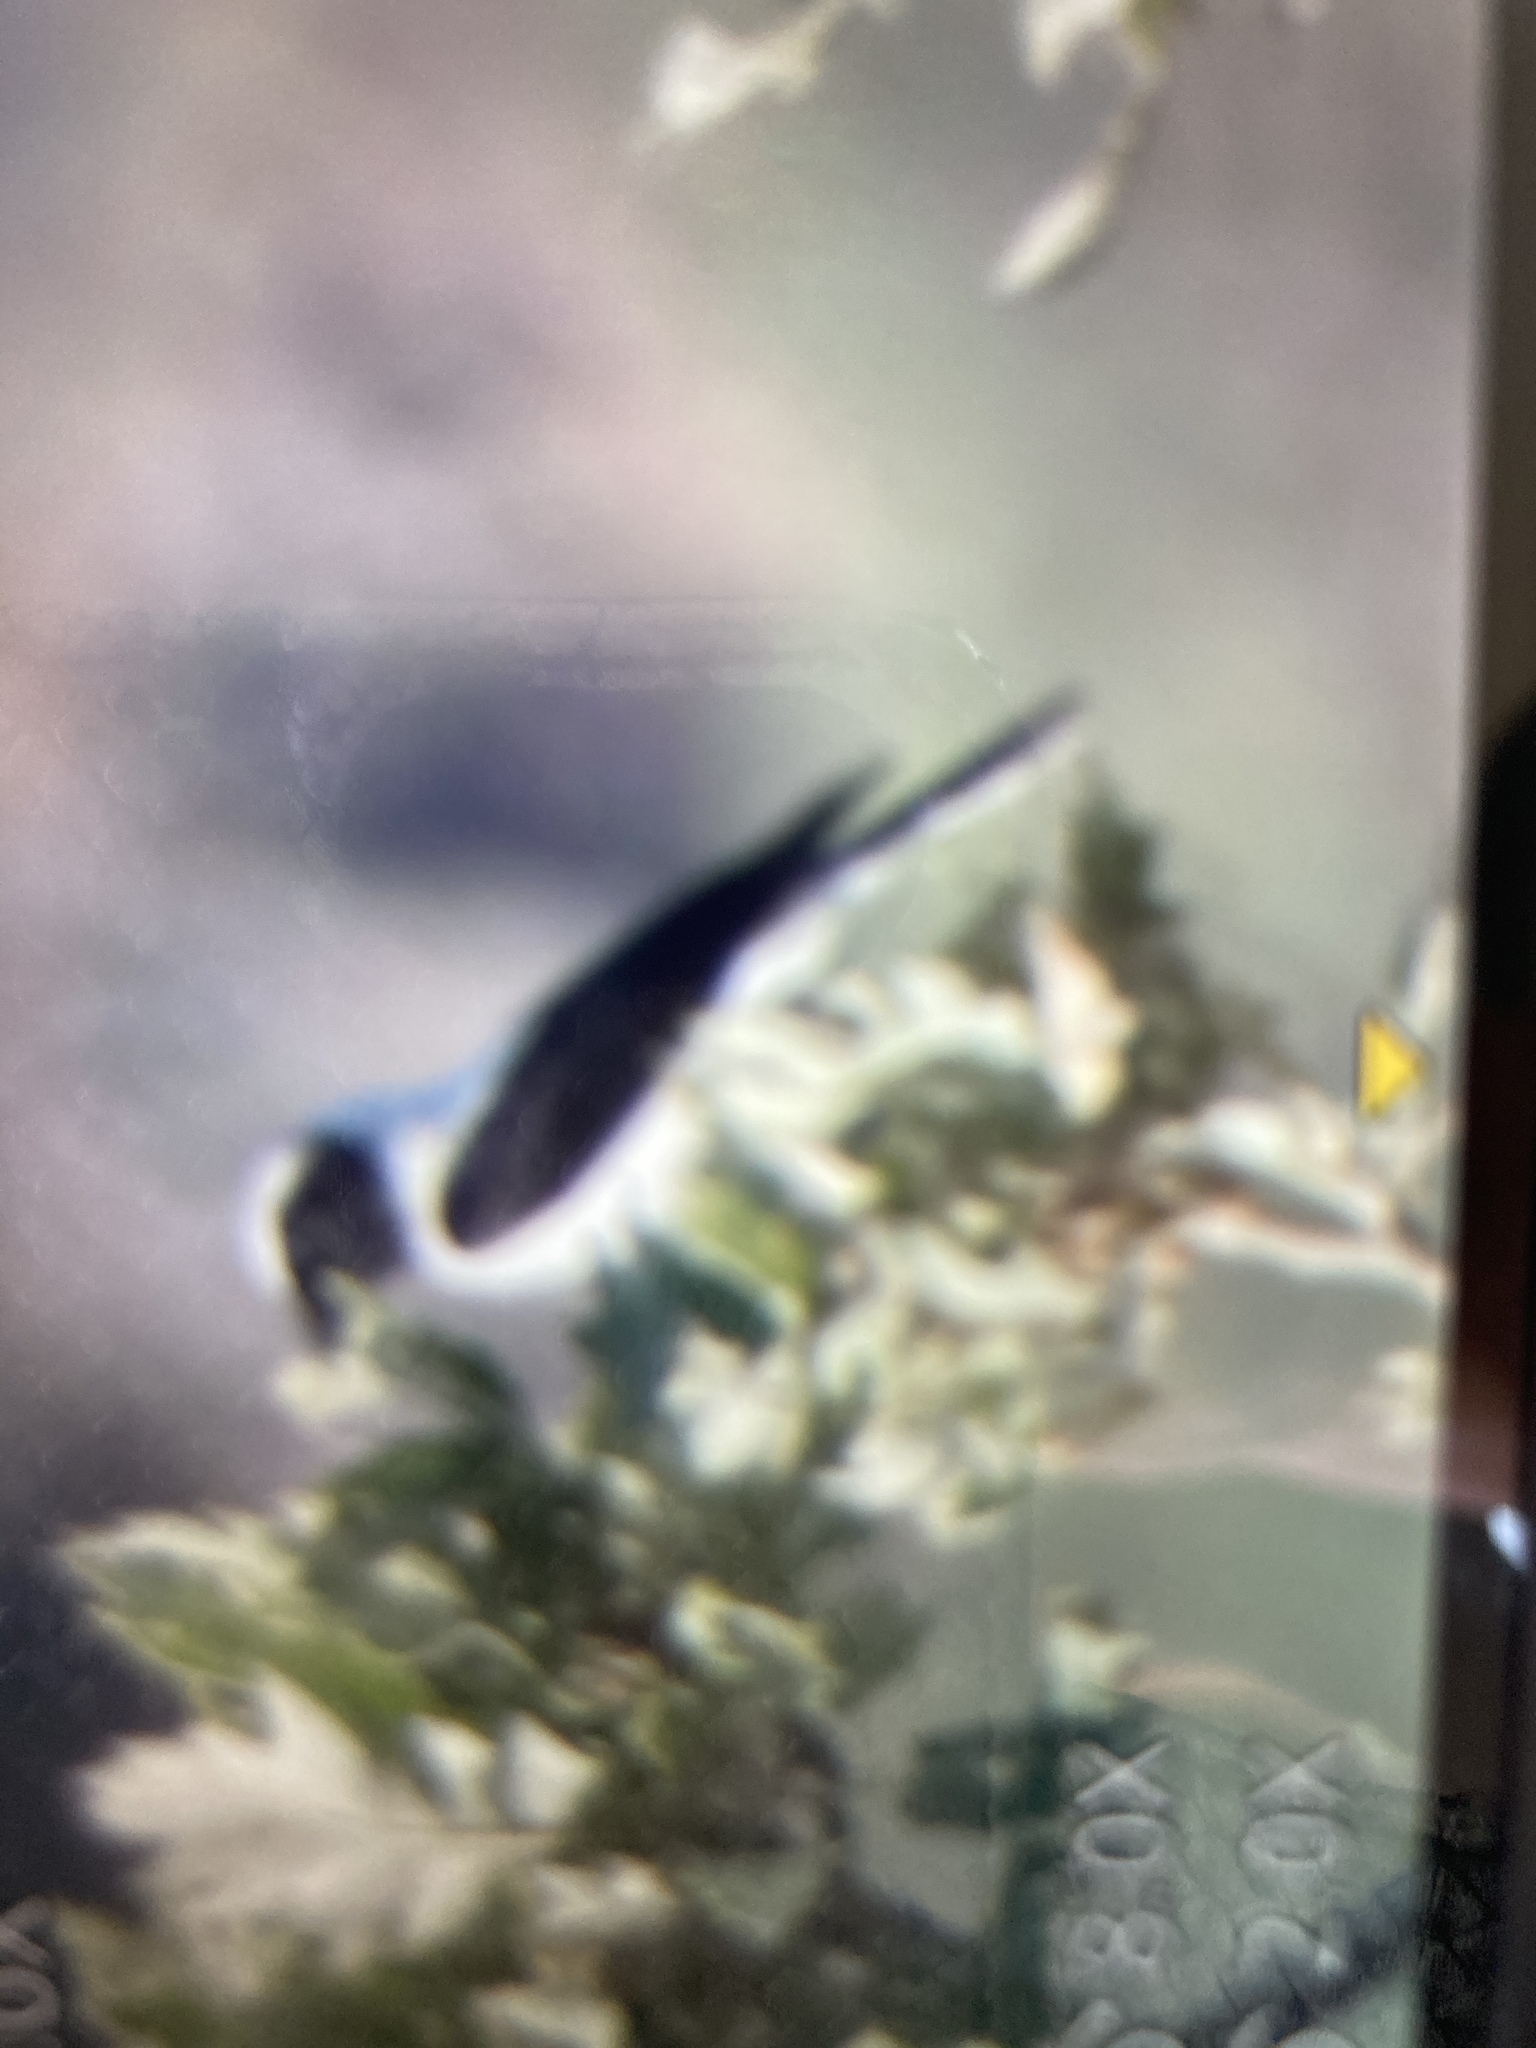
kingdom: Animalia
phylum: Chordata
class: Aves
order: Passeriformes
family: Muscicapidae
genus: Oenanthe
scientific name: Oenanthe hispanica
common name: Black-eared wheatear
